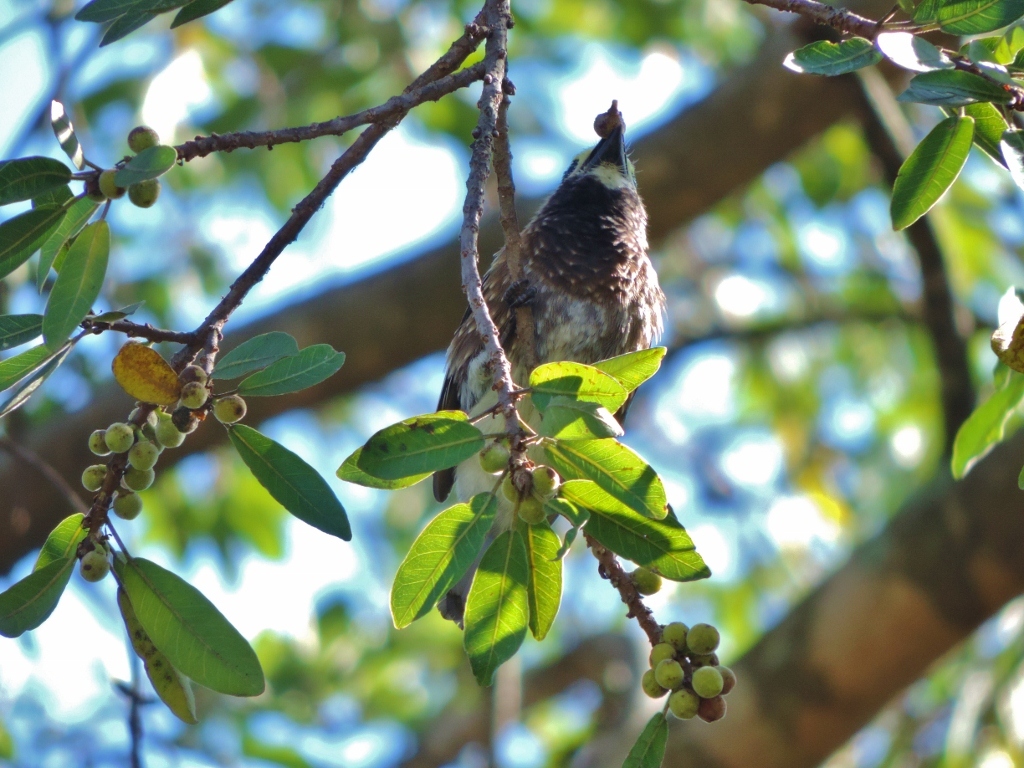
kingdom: Plantae
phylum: Tracheophyta
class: Magnoliopsida
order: Rosales
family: Moraceae
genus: Ficus
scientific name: Ficus thonningii
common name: Fig
